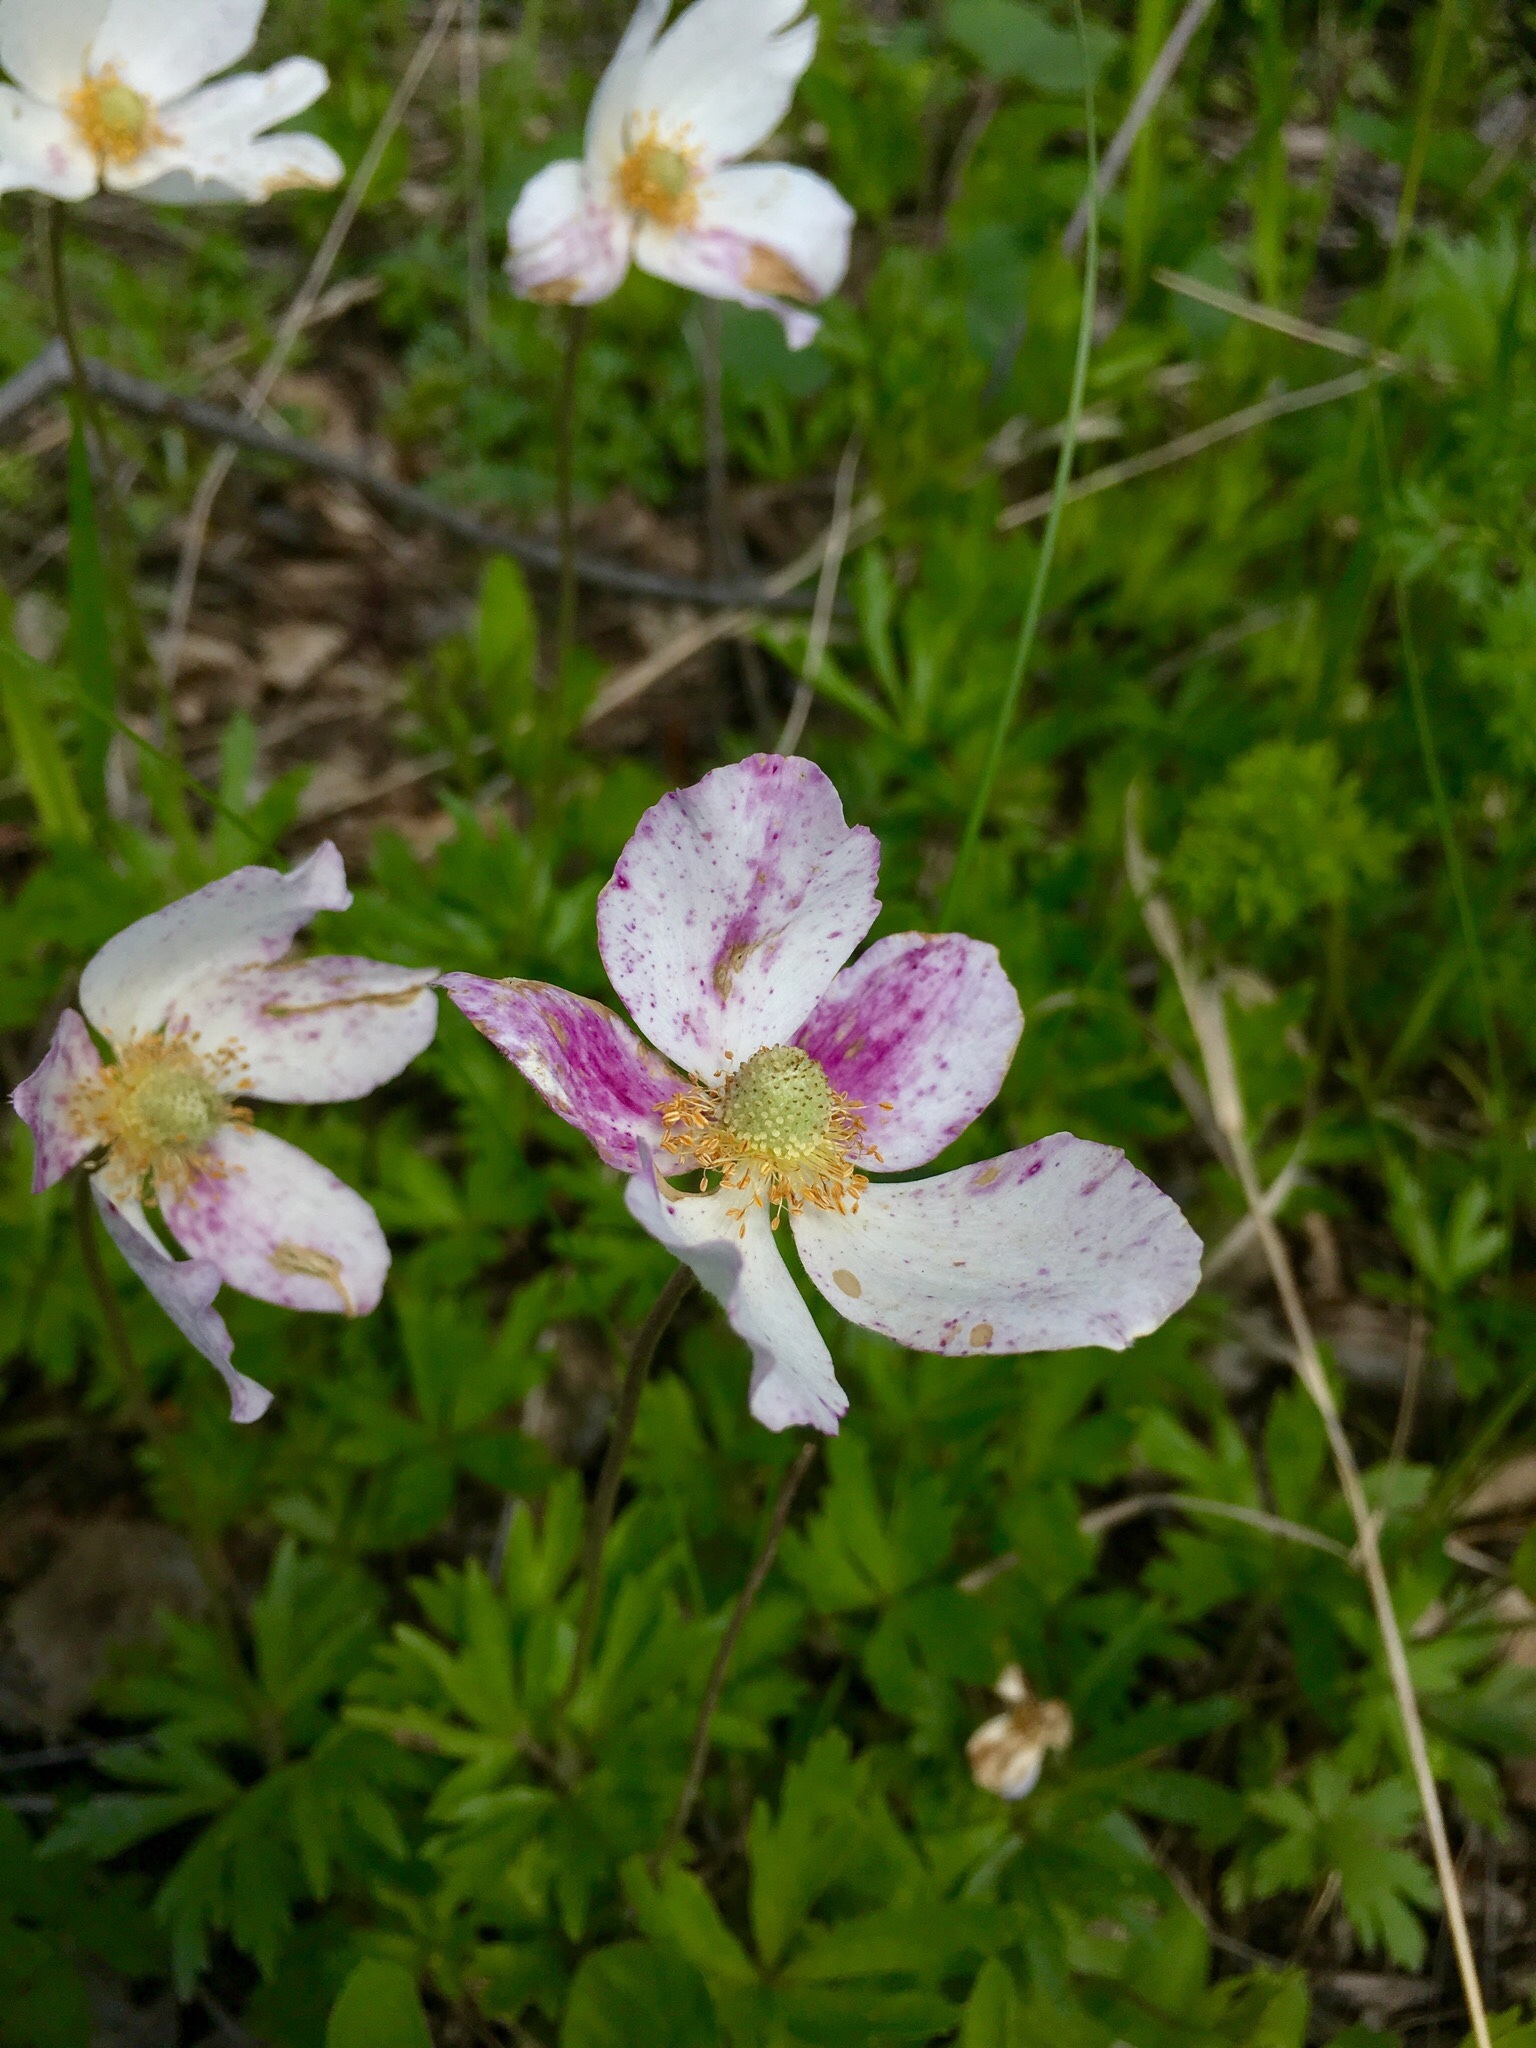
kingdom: Plantae
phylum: Tracheophyta
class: Magnoliopsida
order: Ranunculales
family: Ranunculaceae
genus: Anemone
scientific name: Anemone sylvestris
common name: Snowdrop anemone
